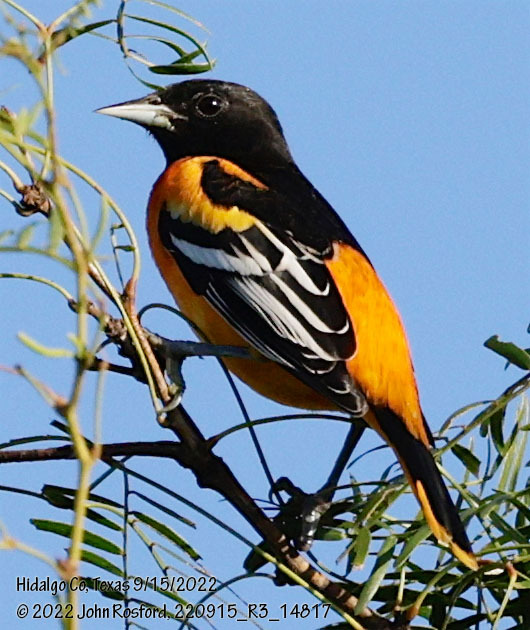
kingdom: Animalia
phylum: Chordata
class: Aves
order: Passeriformes
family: Icteridae
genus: Icterus
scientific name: Icterus galbula
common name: Baltimore oriole
